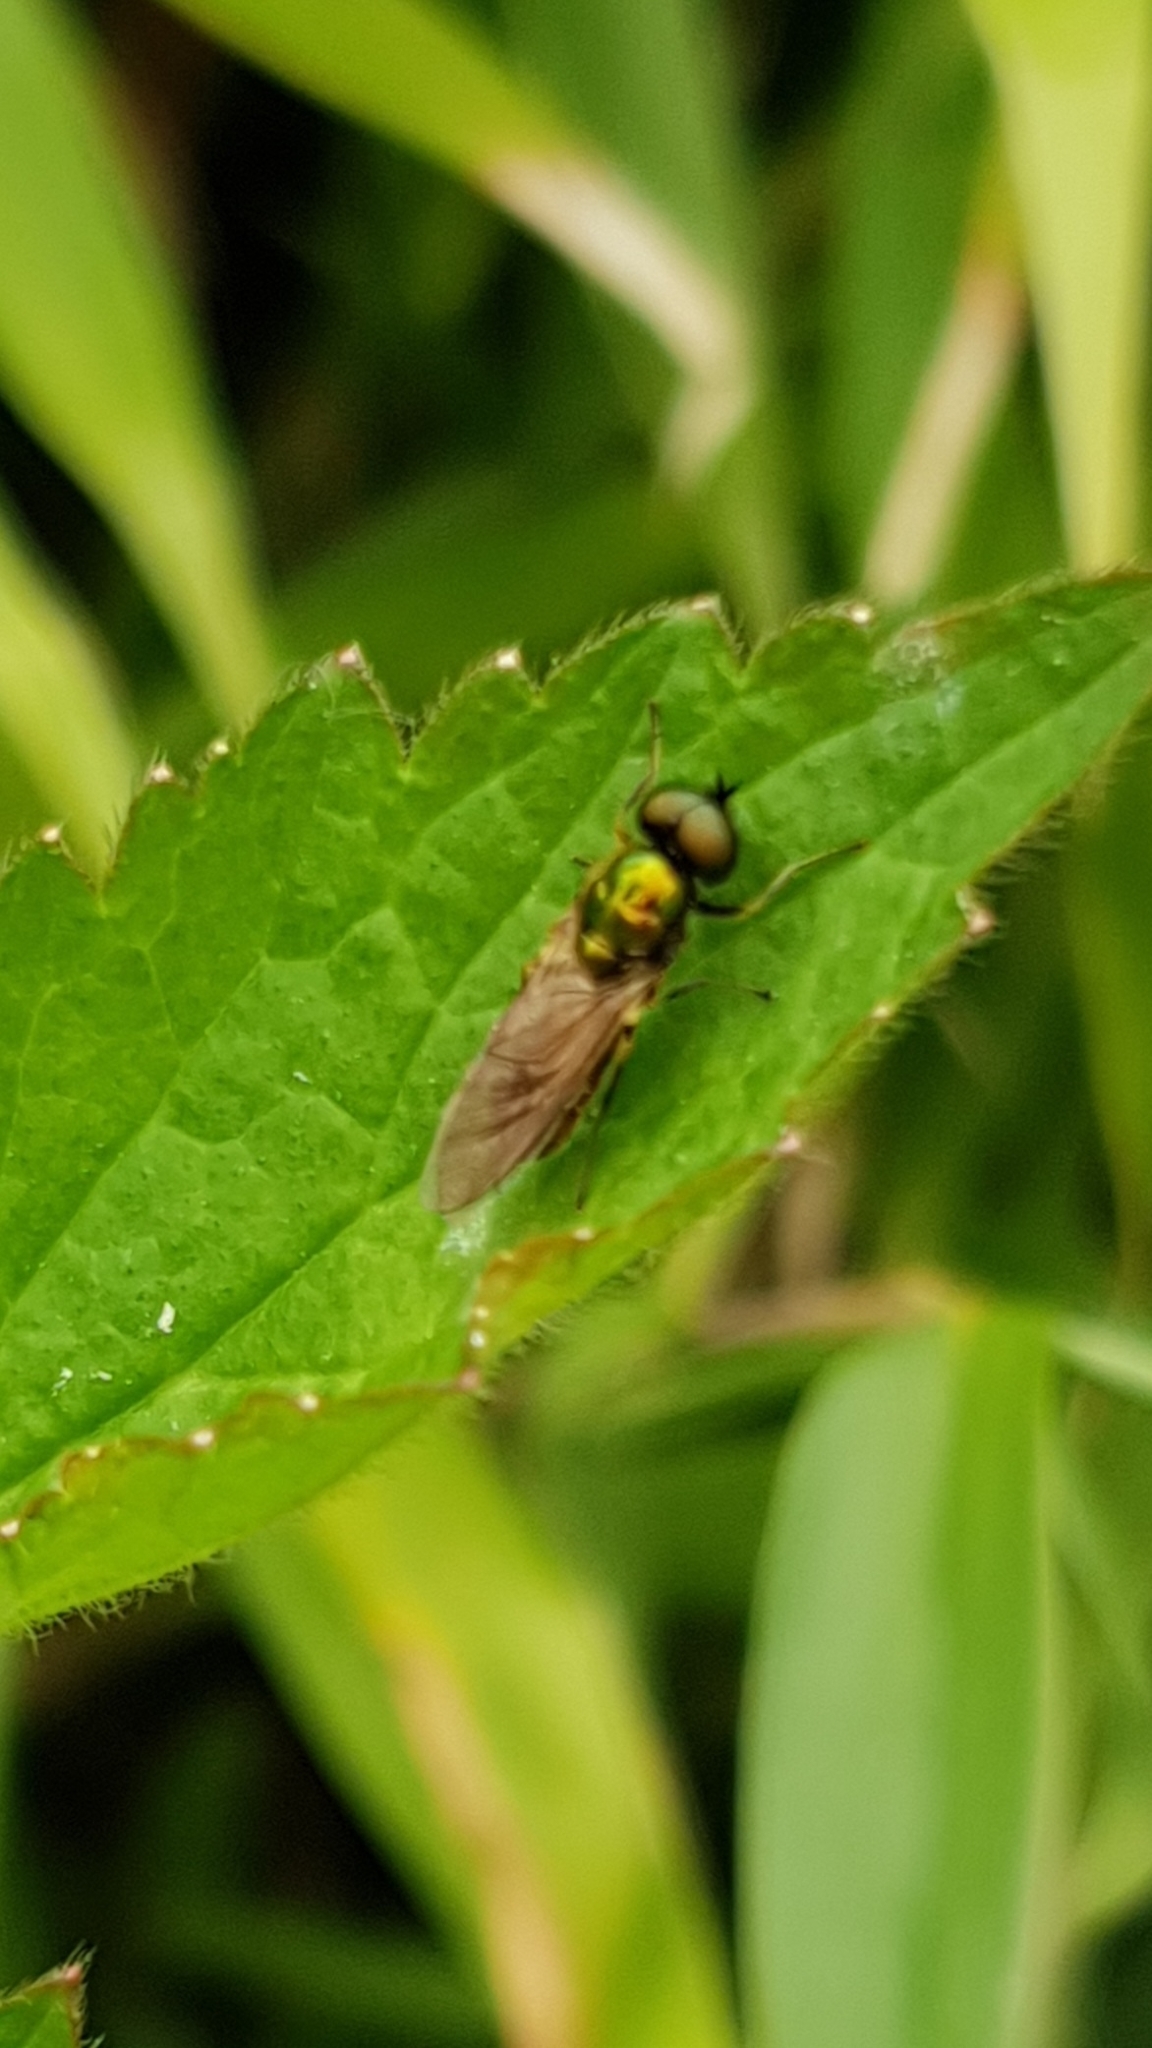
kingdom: Animalia
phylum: Arthropoda
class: Insecta
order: Diptera
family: Stratiomyidae
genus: Chloromyia
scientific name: Chloromyia formosa
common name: Soldier fly
